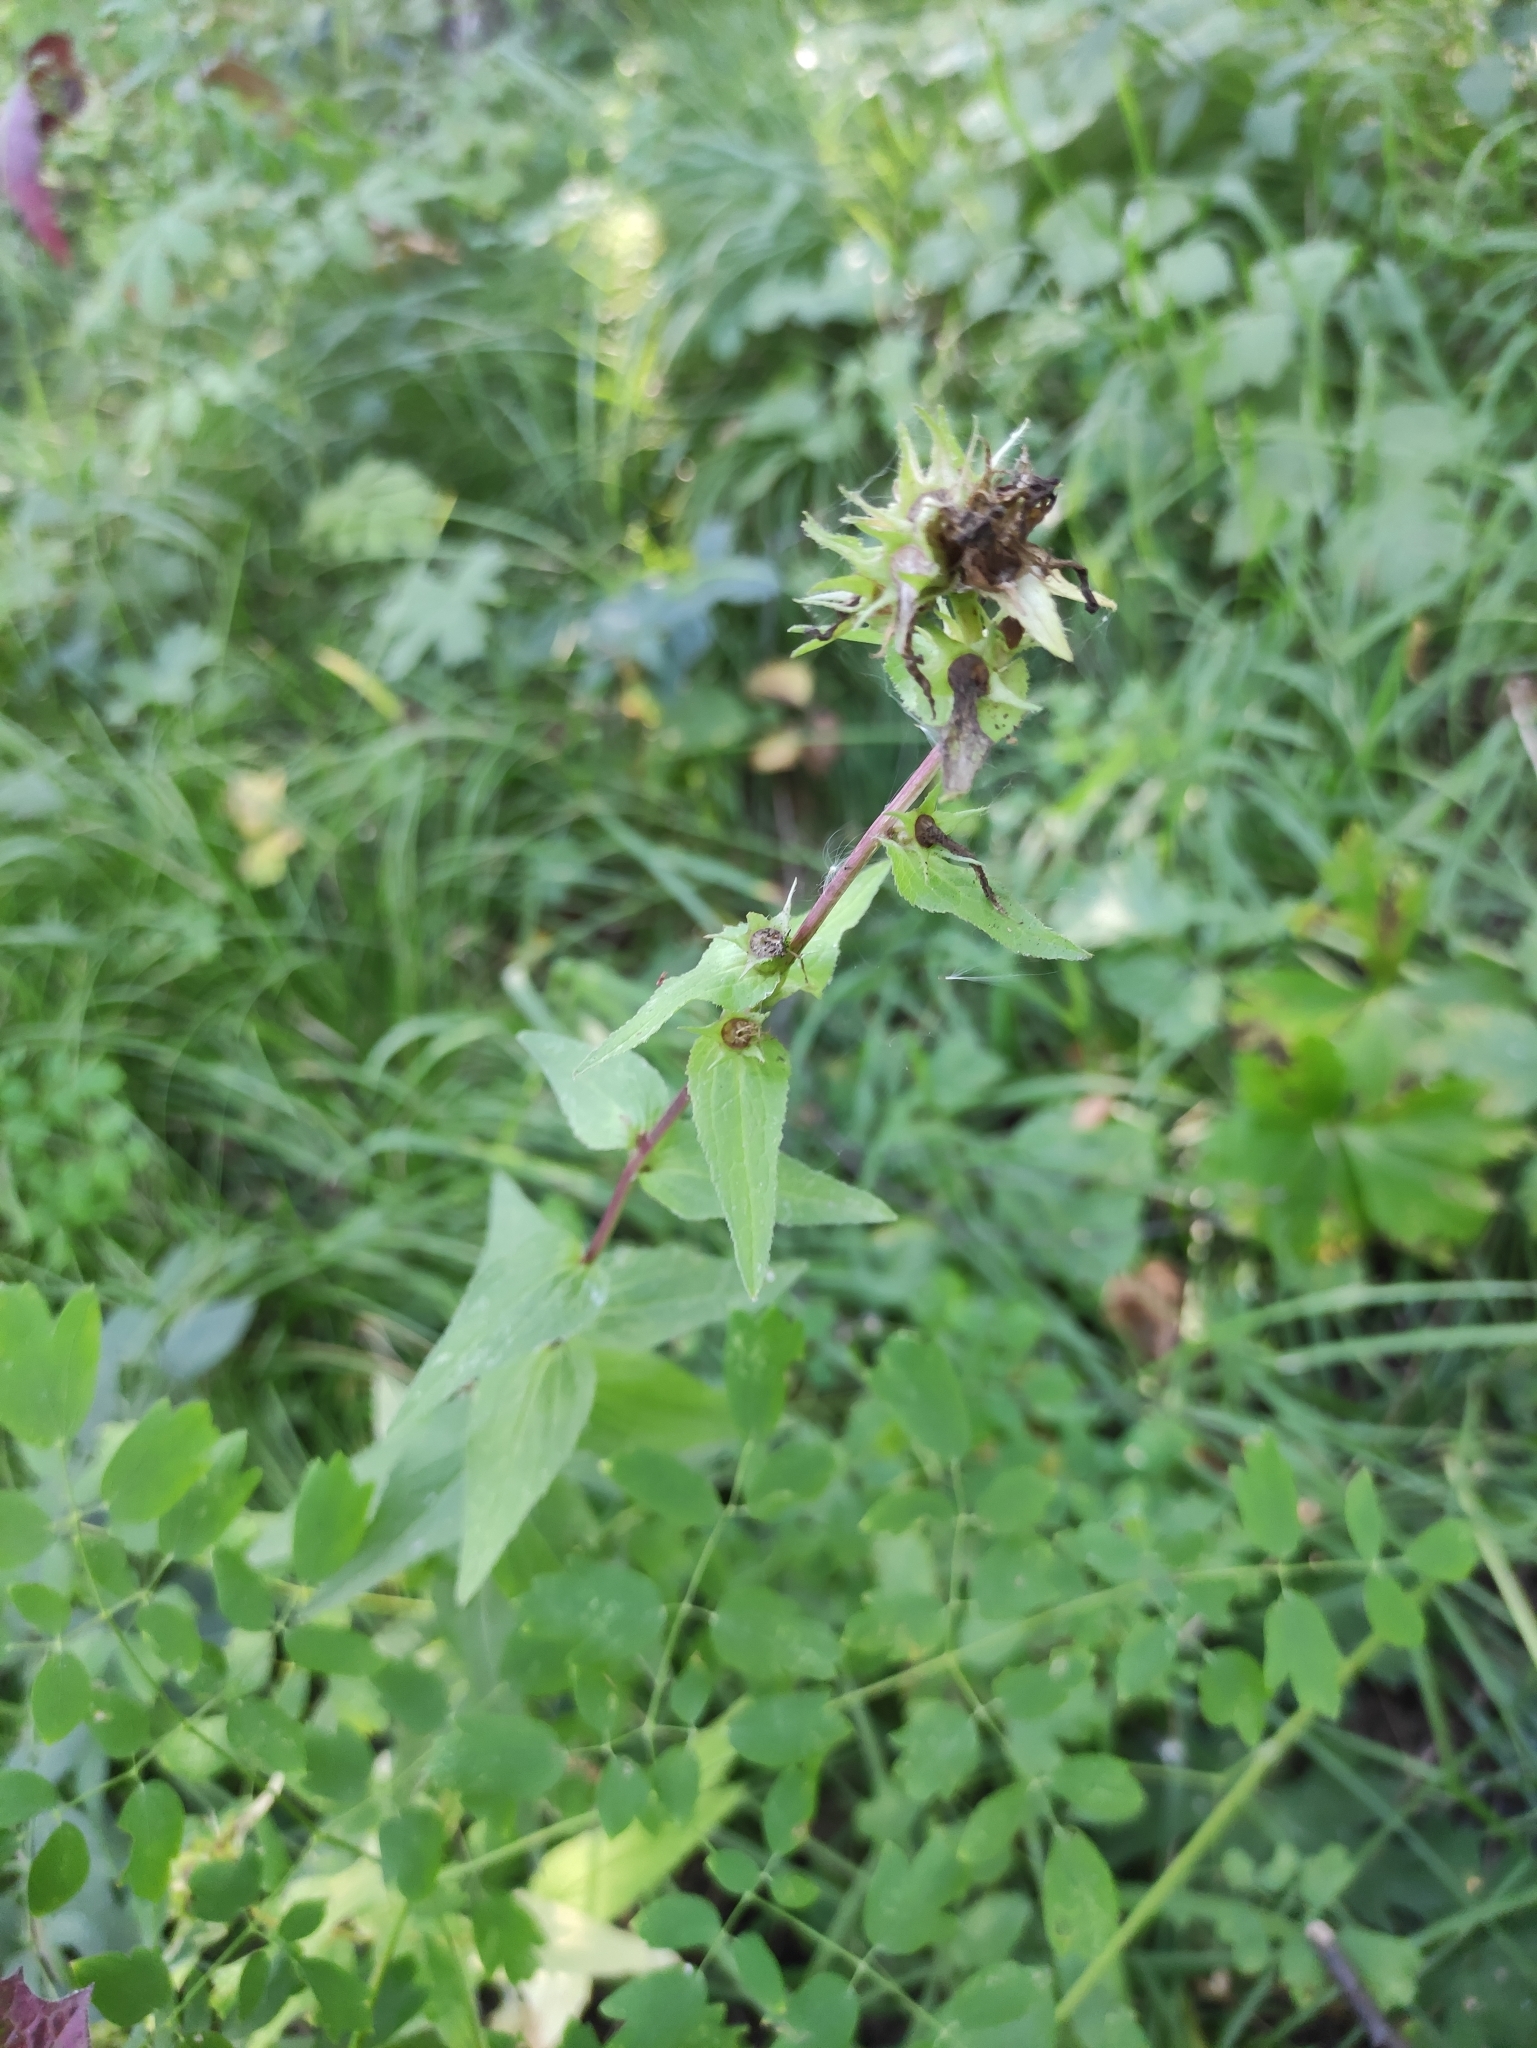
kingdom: Plantae
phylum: Tracheophyta
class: Magnoliopsida
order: Asterales
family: Campanulaceae
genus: Campanula
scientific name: Campanula glomerata
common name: Clustered bellflower
